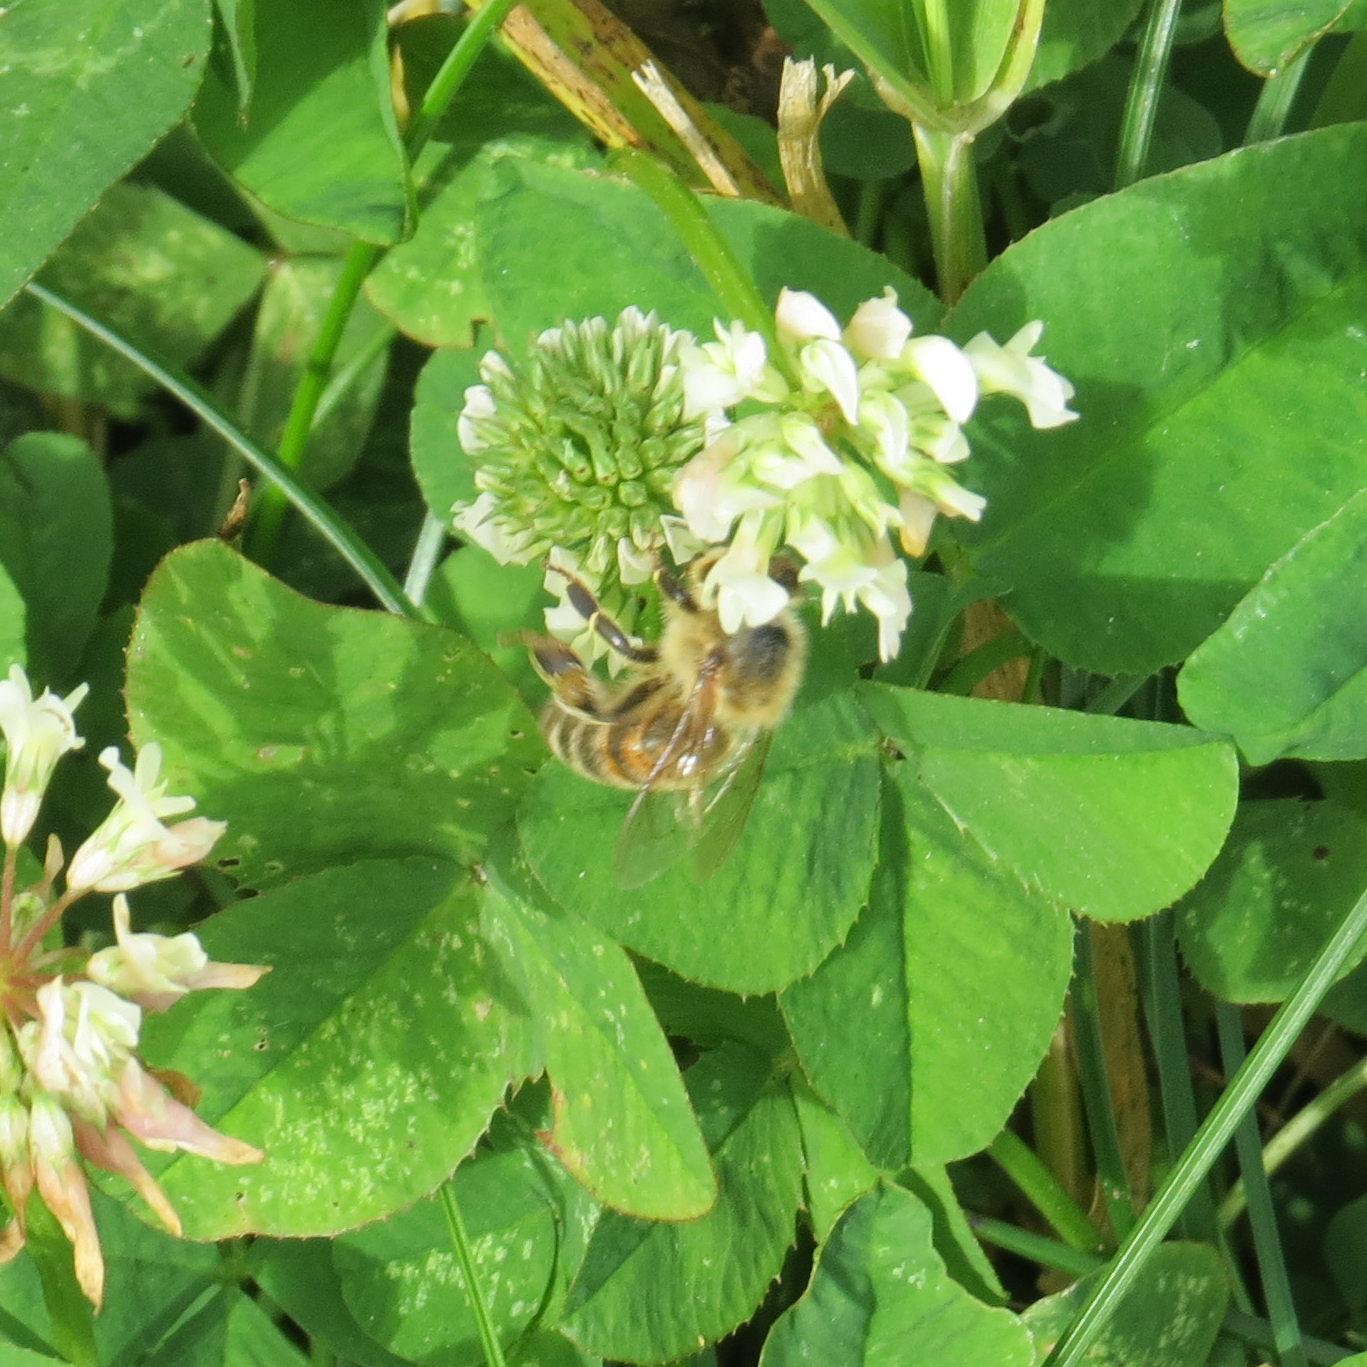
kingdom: Animalia
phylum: Arthropoda
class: Insecta
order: Hymenoptera
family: Apidae
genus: Apis
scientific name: Apis mellifera
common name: Honey bee
